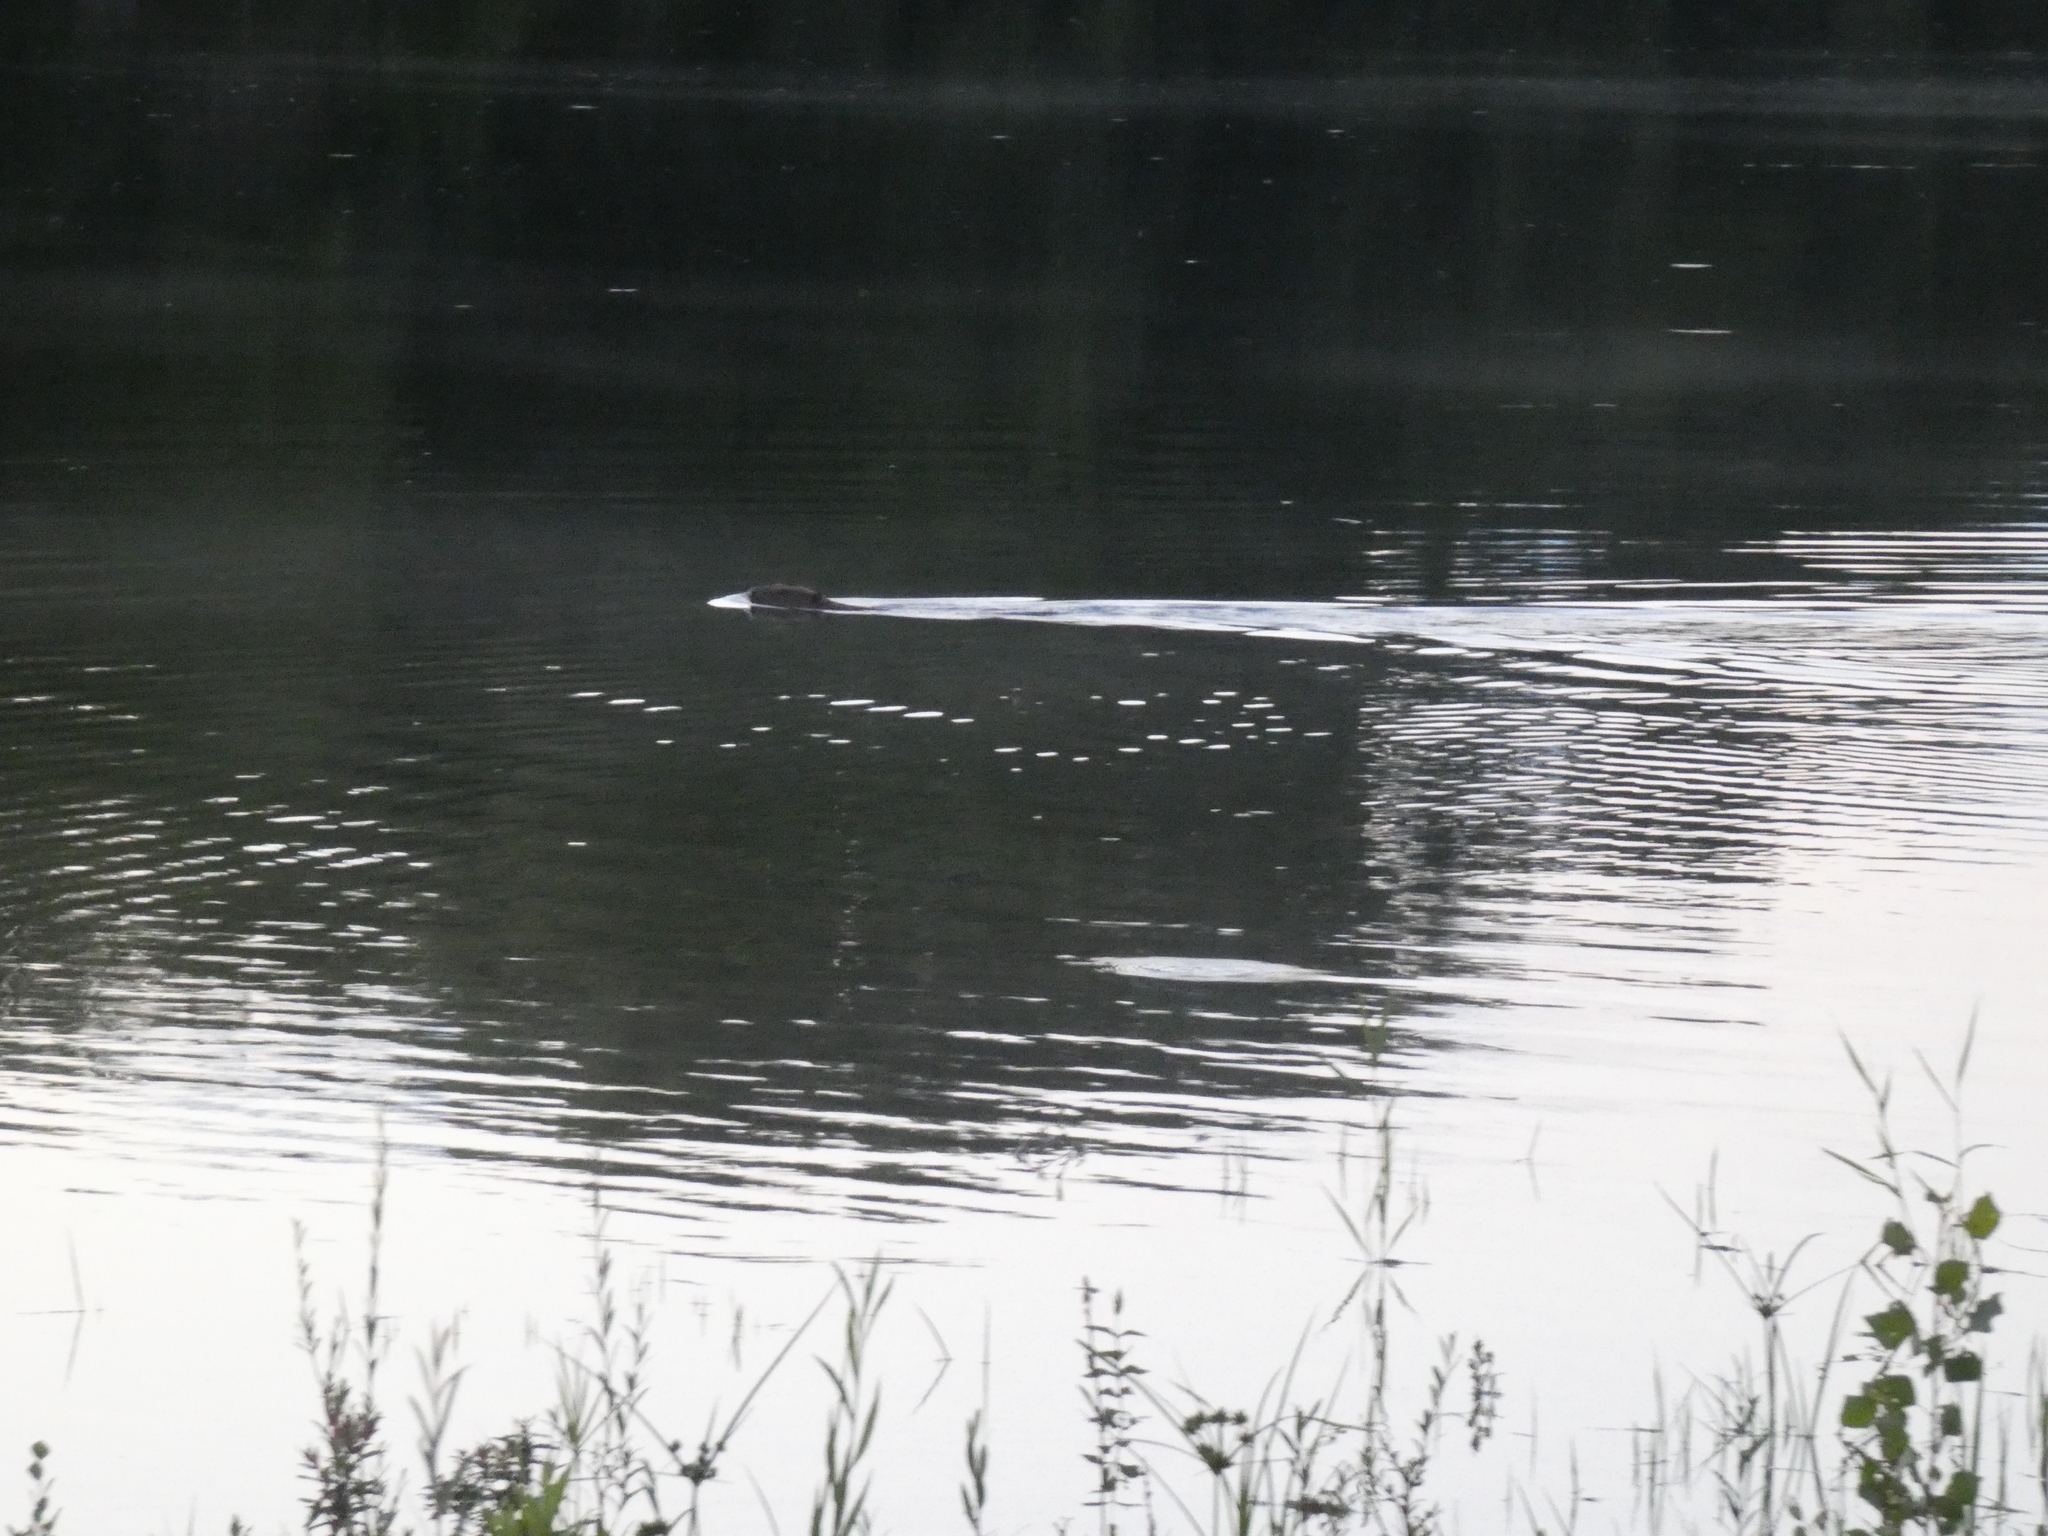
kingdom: Animalia
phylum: Chordata
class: Mammalia
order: Rodentia
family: Castoridae
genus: Castor
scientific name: Castor fiber
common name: Eurasian beaver
